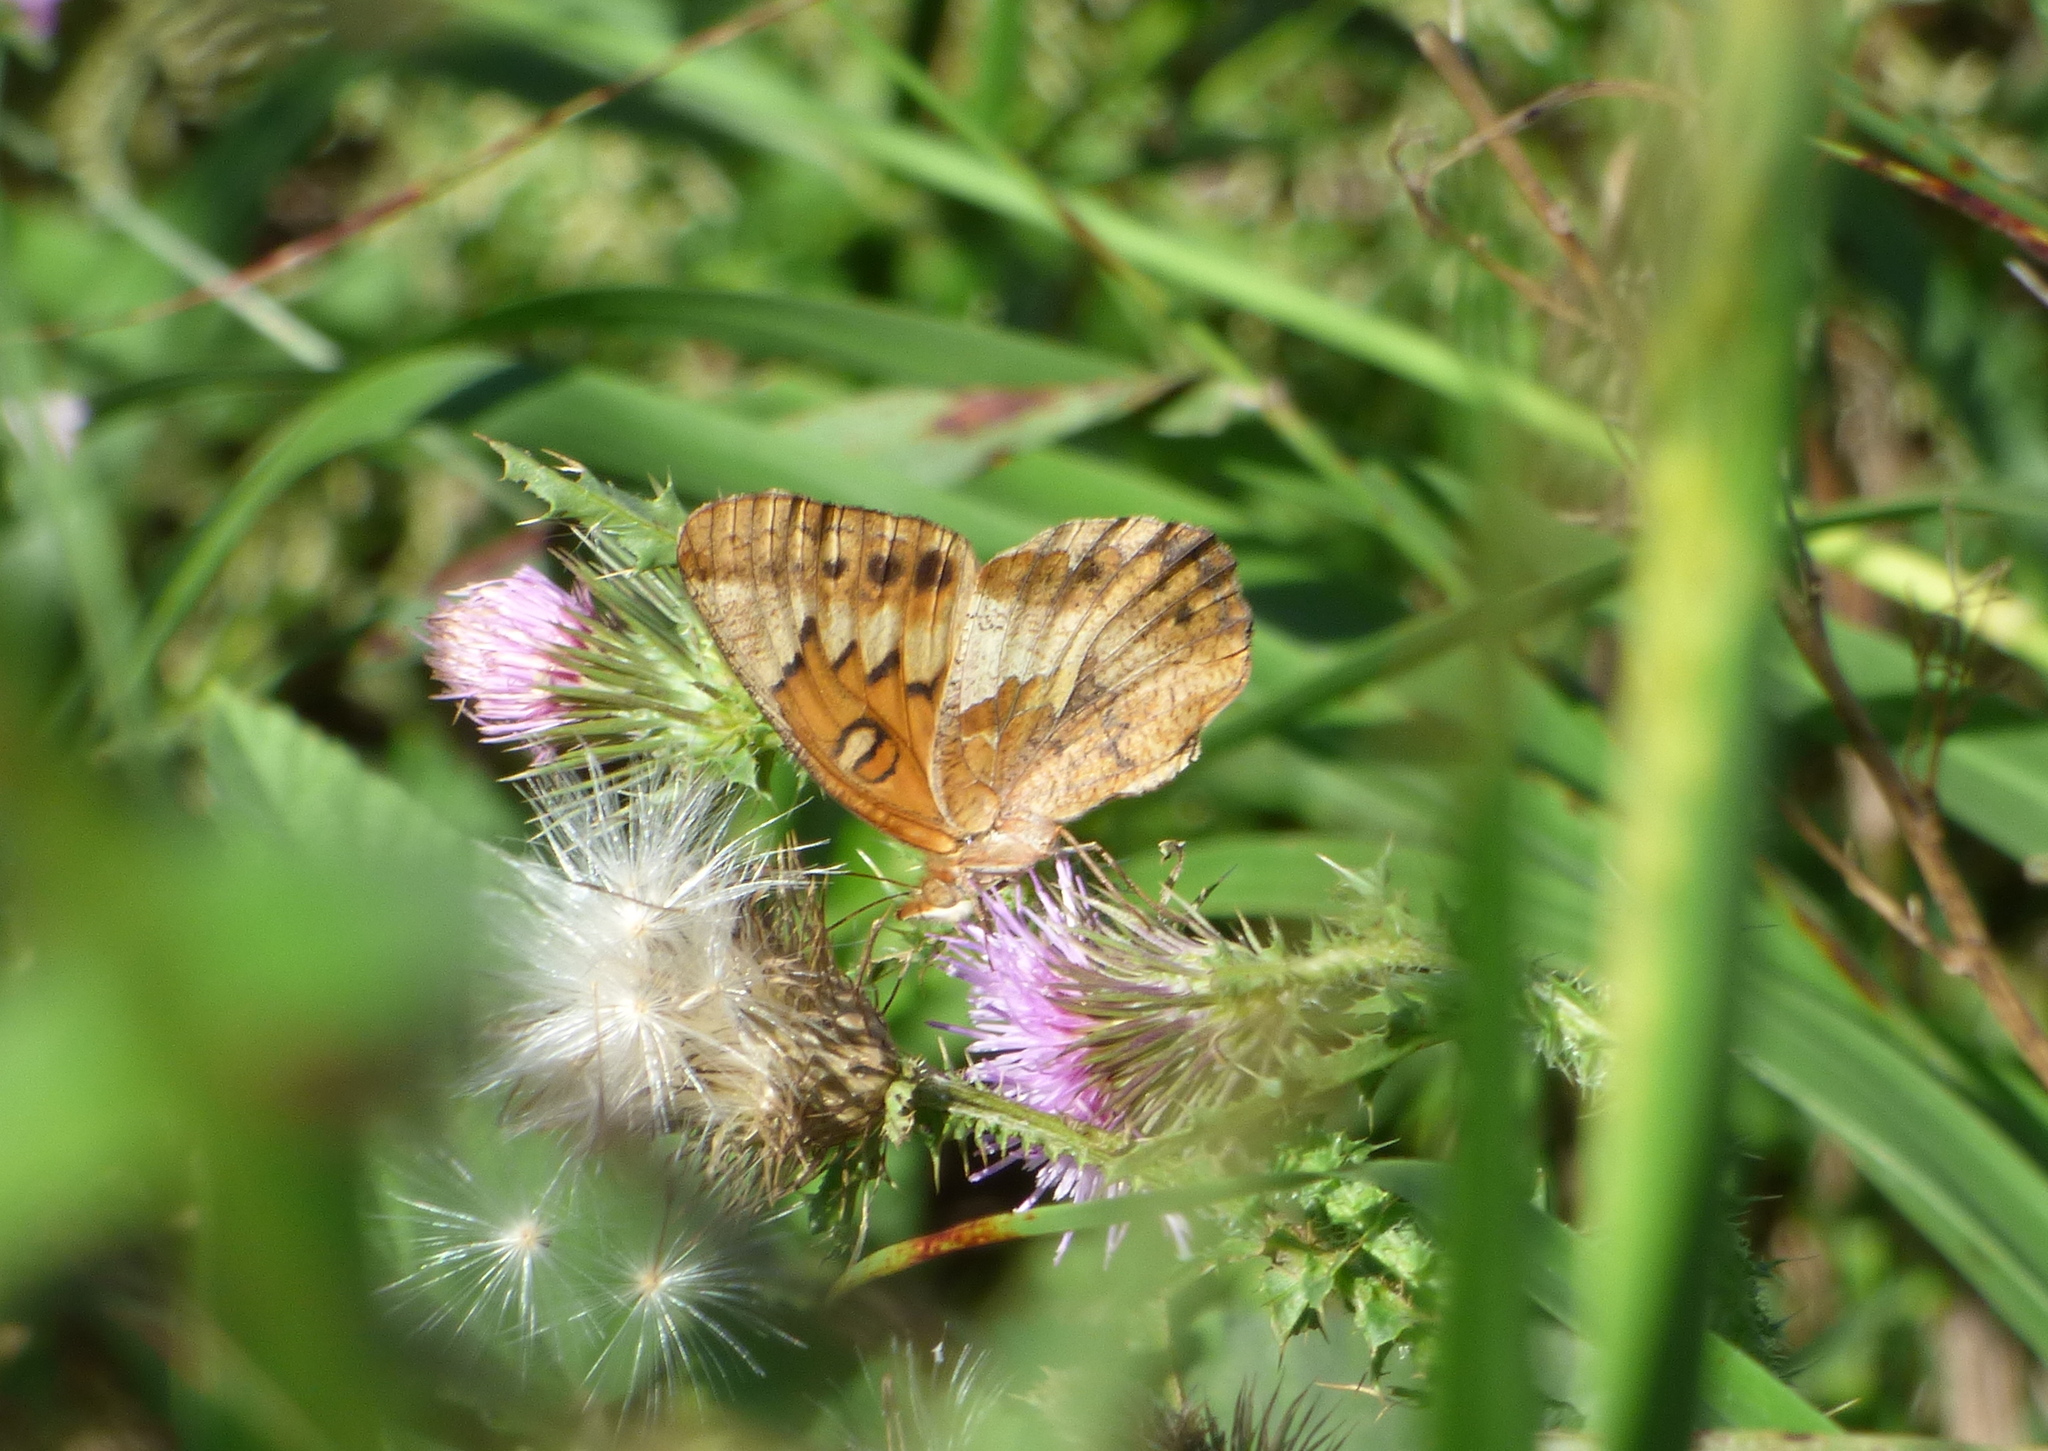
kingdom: Animalia
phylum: Arthropoda
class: Insecta
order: Lepidoptera
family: Nymphalidae
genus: Euptoieta
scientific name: Euptoieta hortensia
